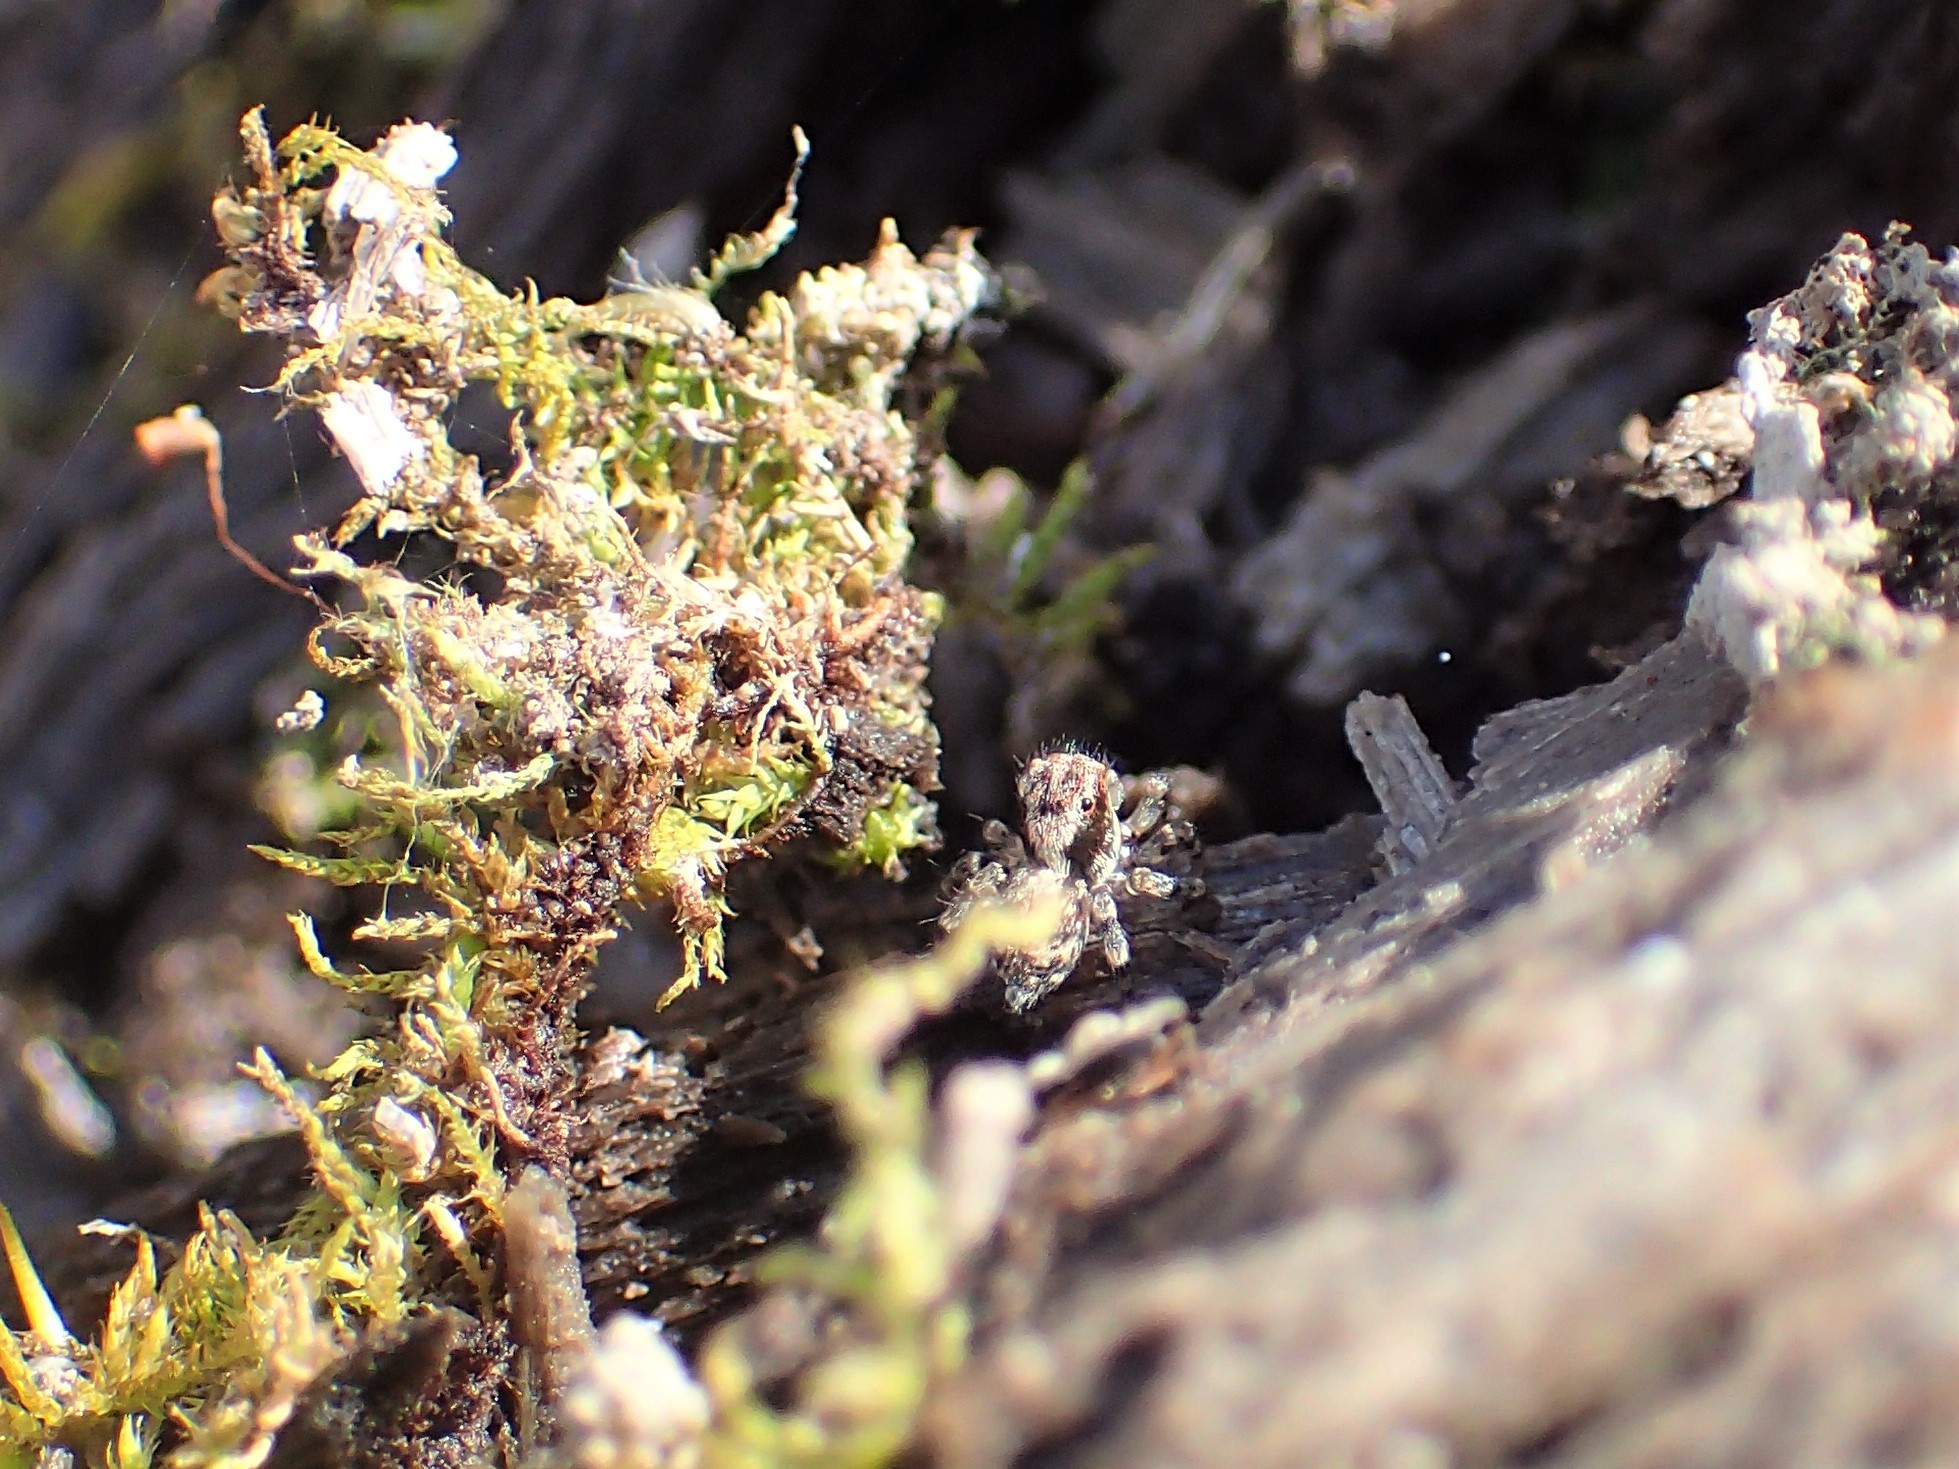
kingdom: Animalia
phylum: Arthropoda
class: Arachnida
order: Araneae
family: Salticidae
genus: Naphrys
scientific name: Naphrys pulex
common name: Flea jumping spider
